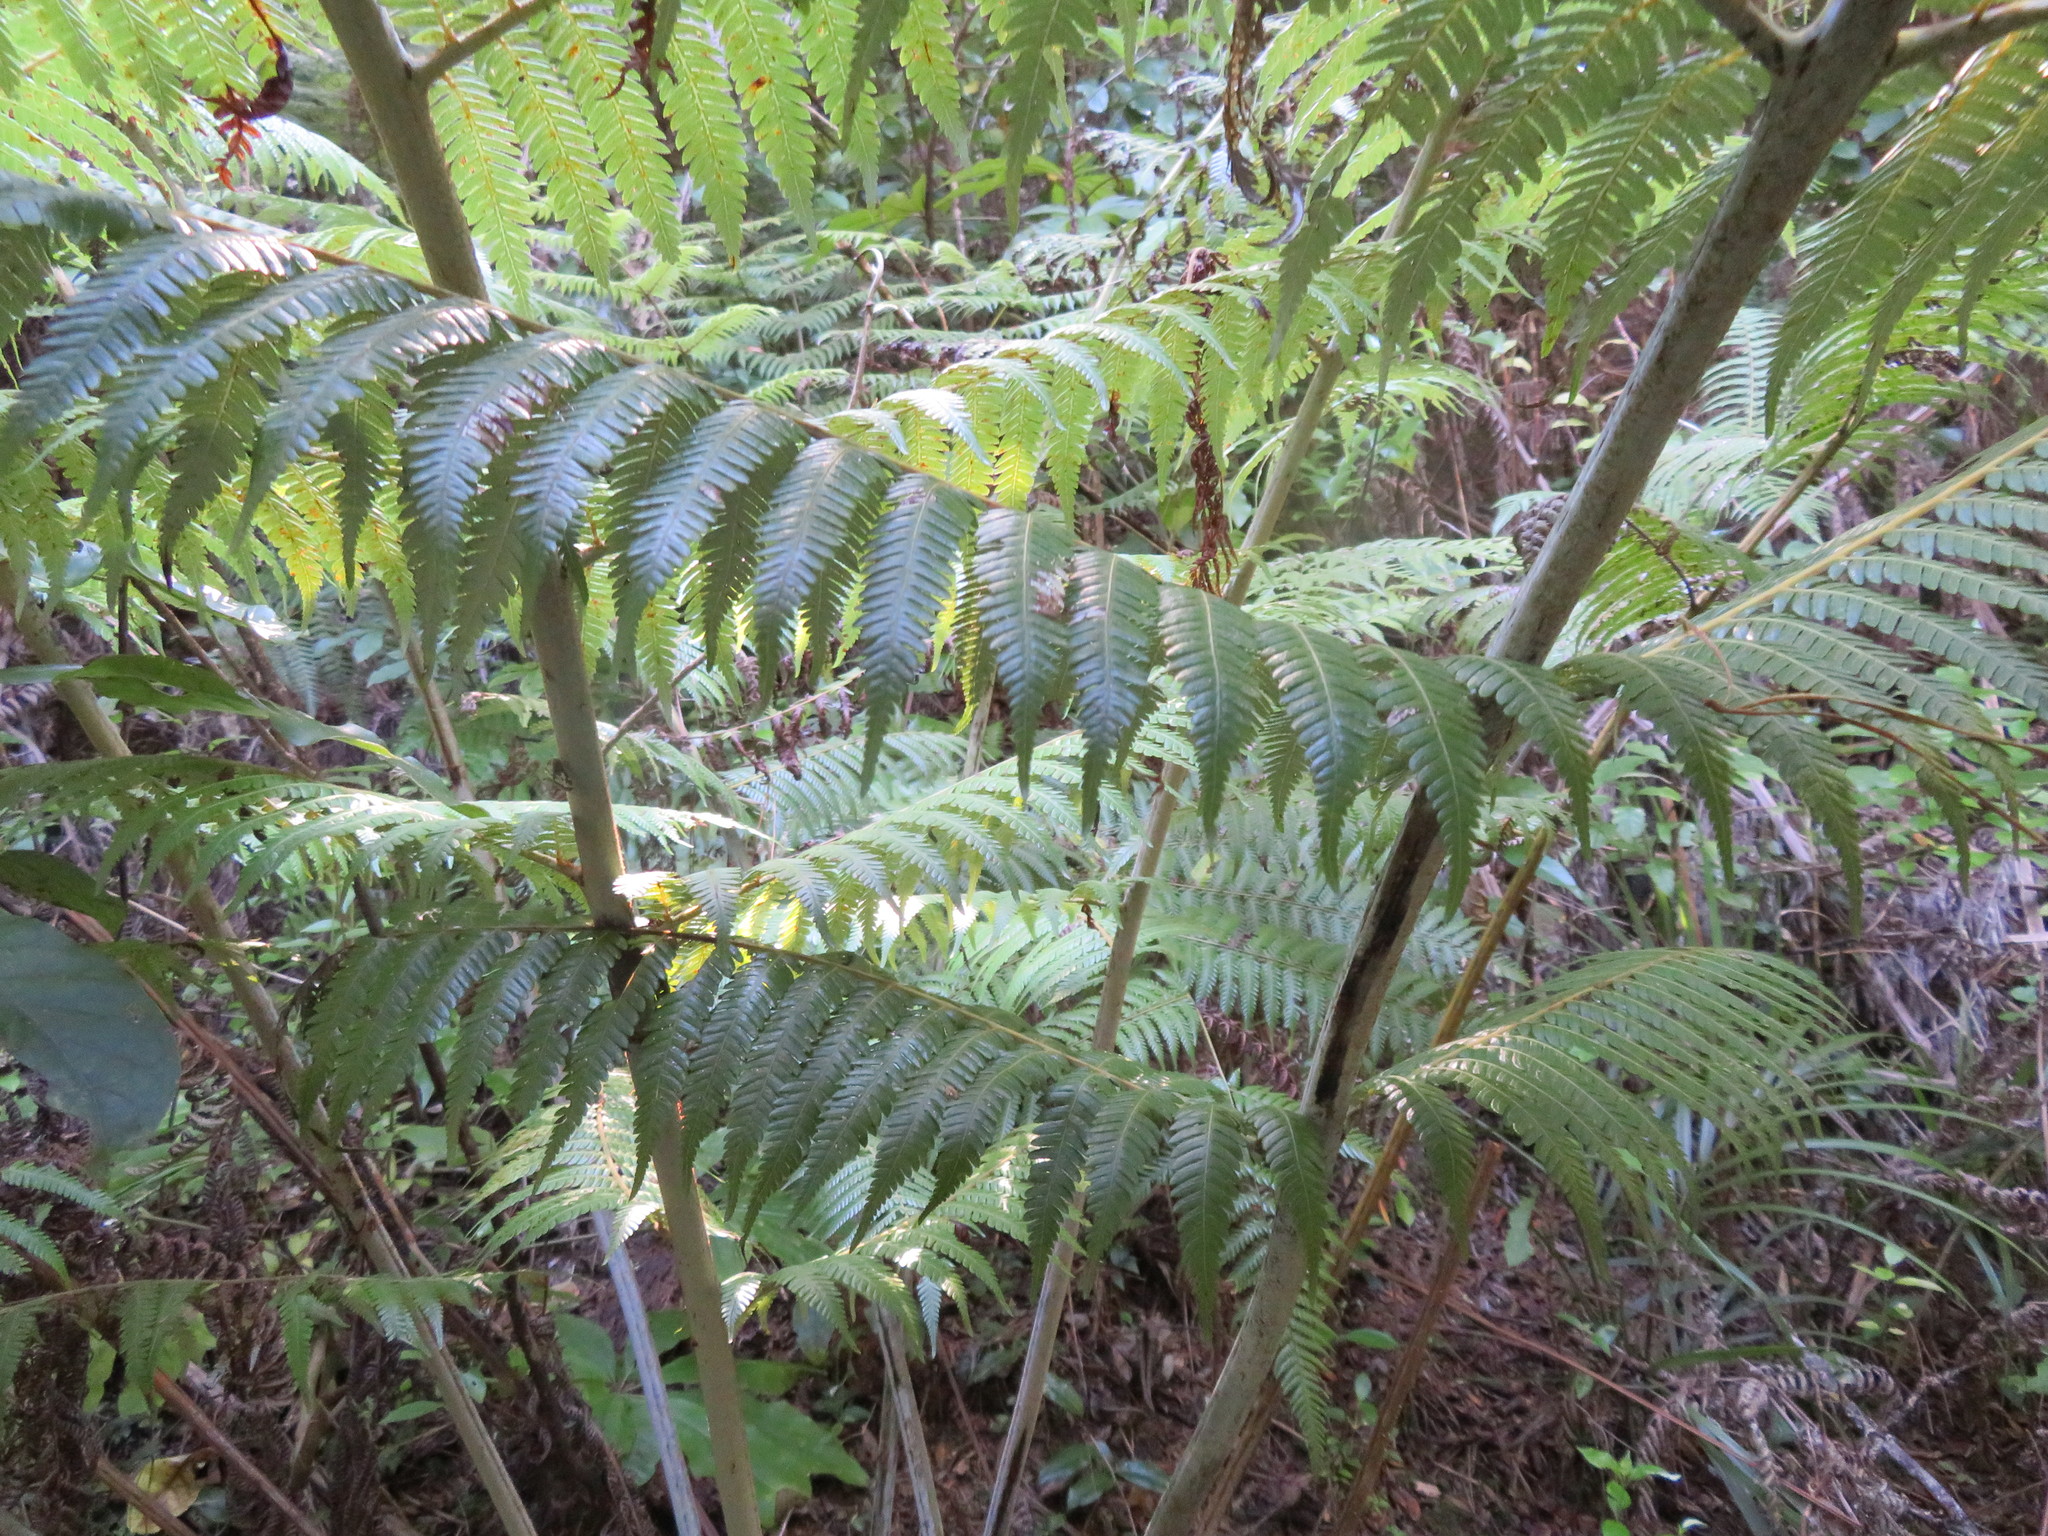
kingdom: Plantae
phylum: Tracheophyta
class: Polypodiopsida
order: Cyatheales
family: Cyatheaceae
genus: Alsophila
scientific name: Alsophila dealbata
